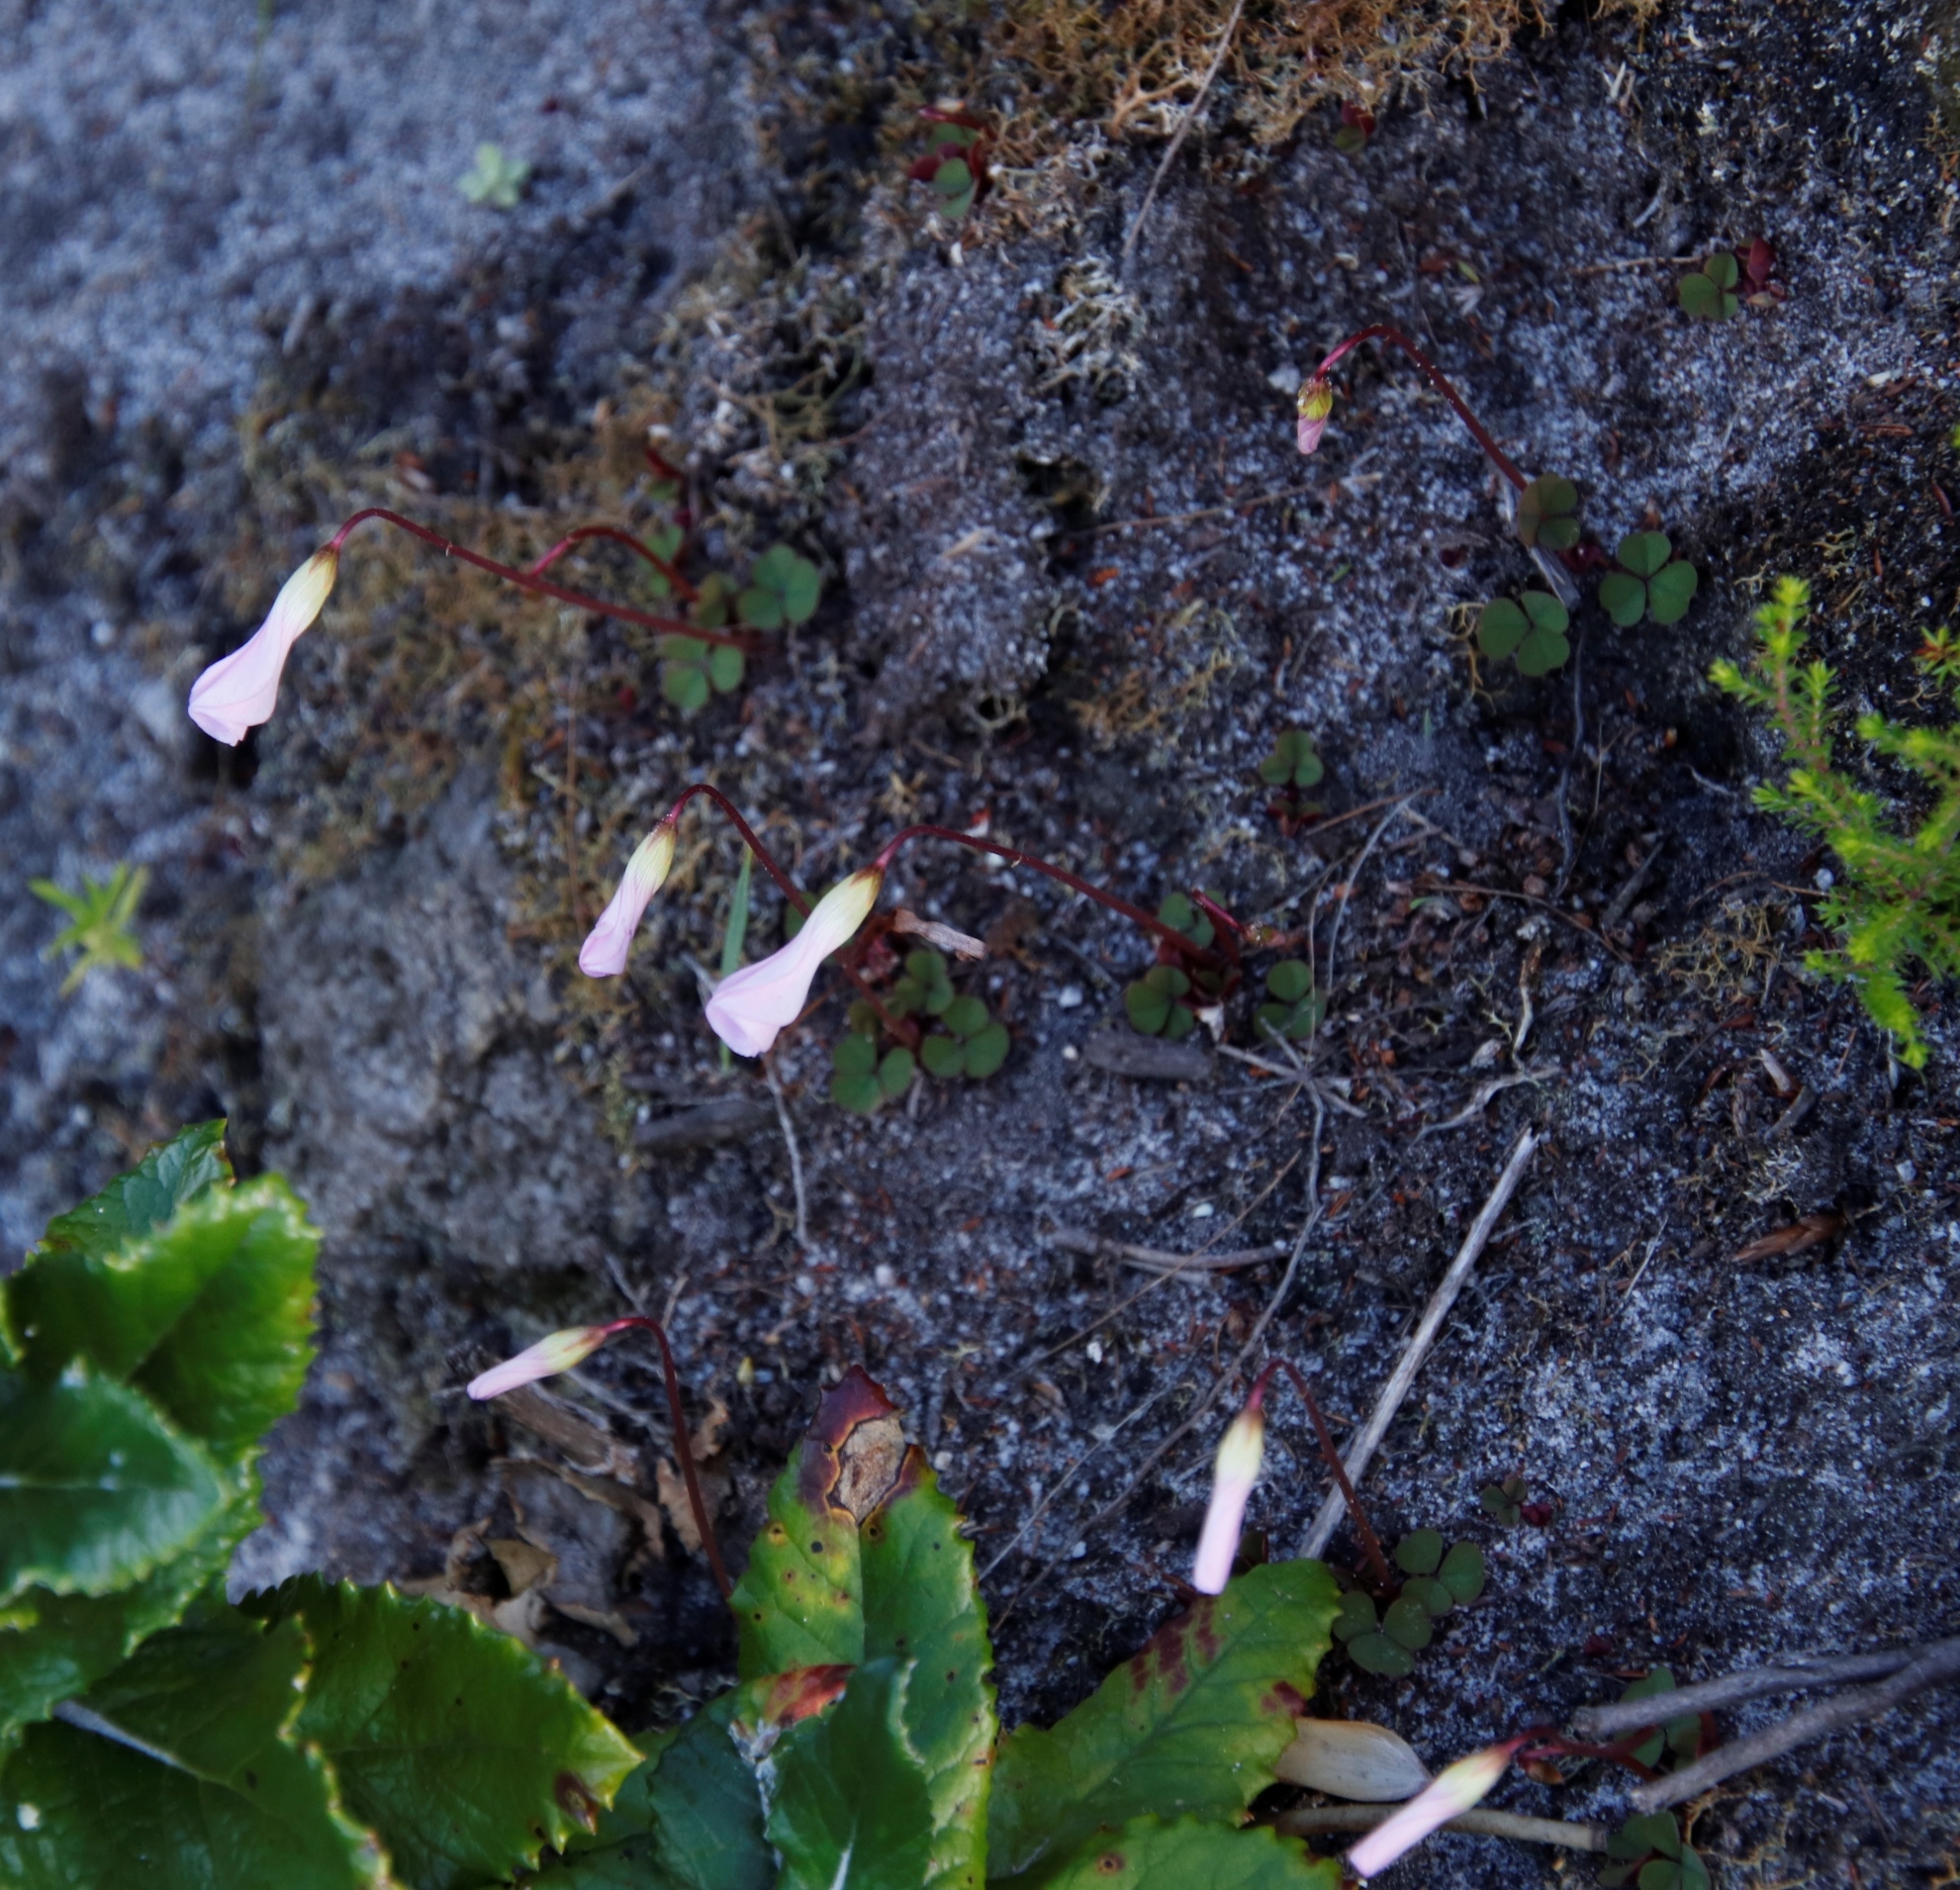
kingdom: Plantae
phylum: Tracheophyta
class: Magnoliopsida
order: Oxalidales
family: Oxalidaceae
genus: Oxalis
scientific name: Oxalis commutata
